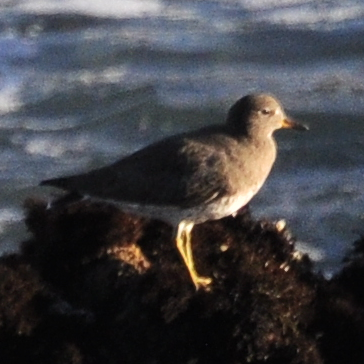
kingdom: Animalia
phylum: Chordata
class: Aves
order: Charadriiformes
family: Scolopacidae
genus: Calidris
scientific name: Calidris virgata
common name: Surfbird
